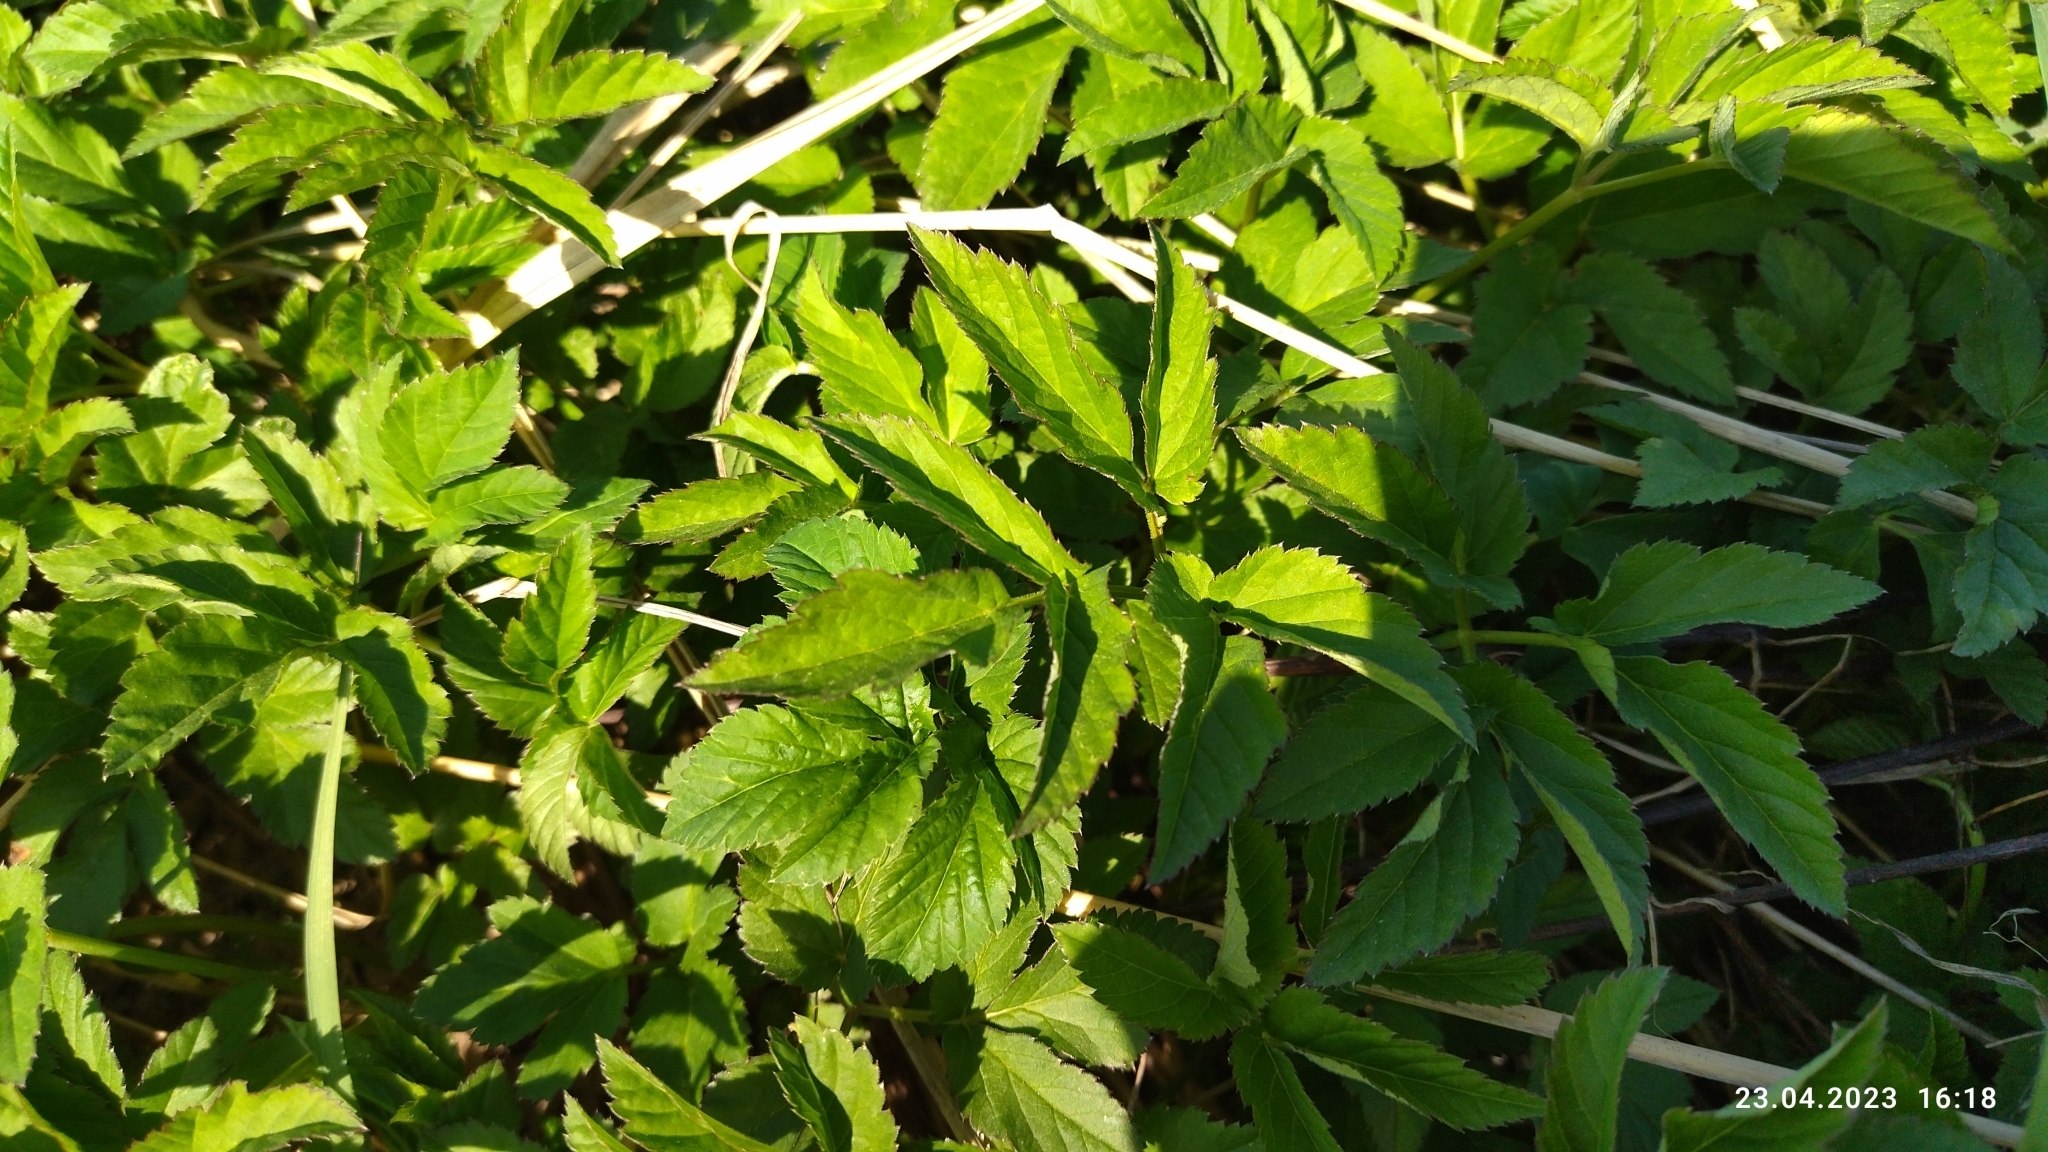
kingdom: Plantae
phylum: Tracheophyta
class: Magnoliopsida
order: Apiales
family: Apiaceae
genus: Aegopodium
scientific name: Aegopodium podagraria
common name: Ground-elder
